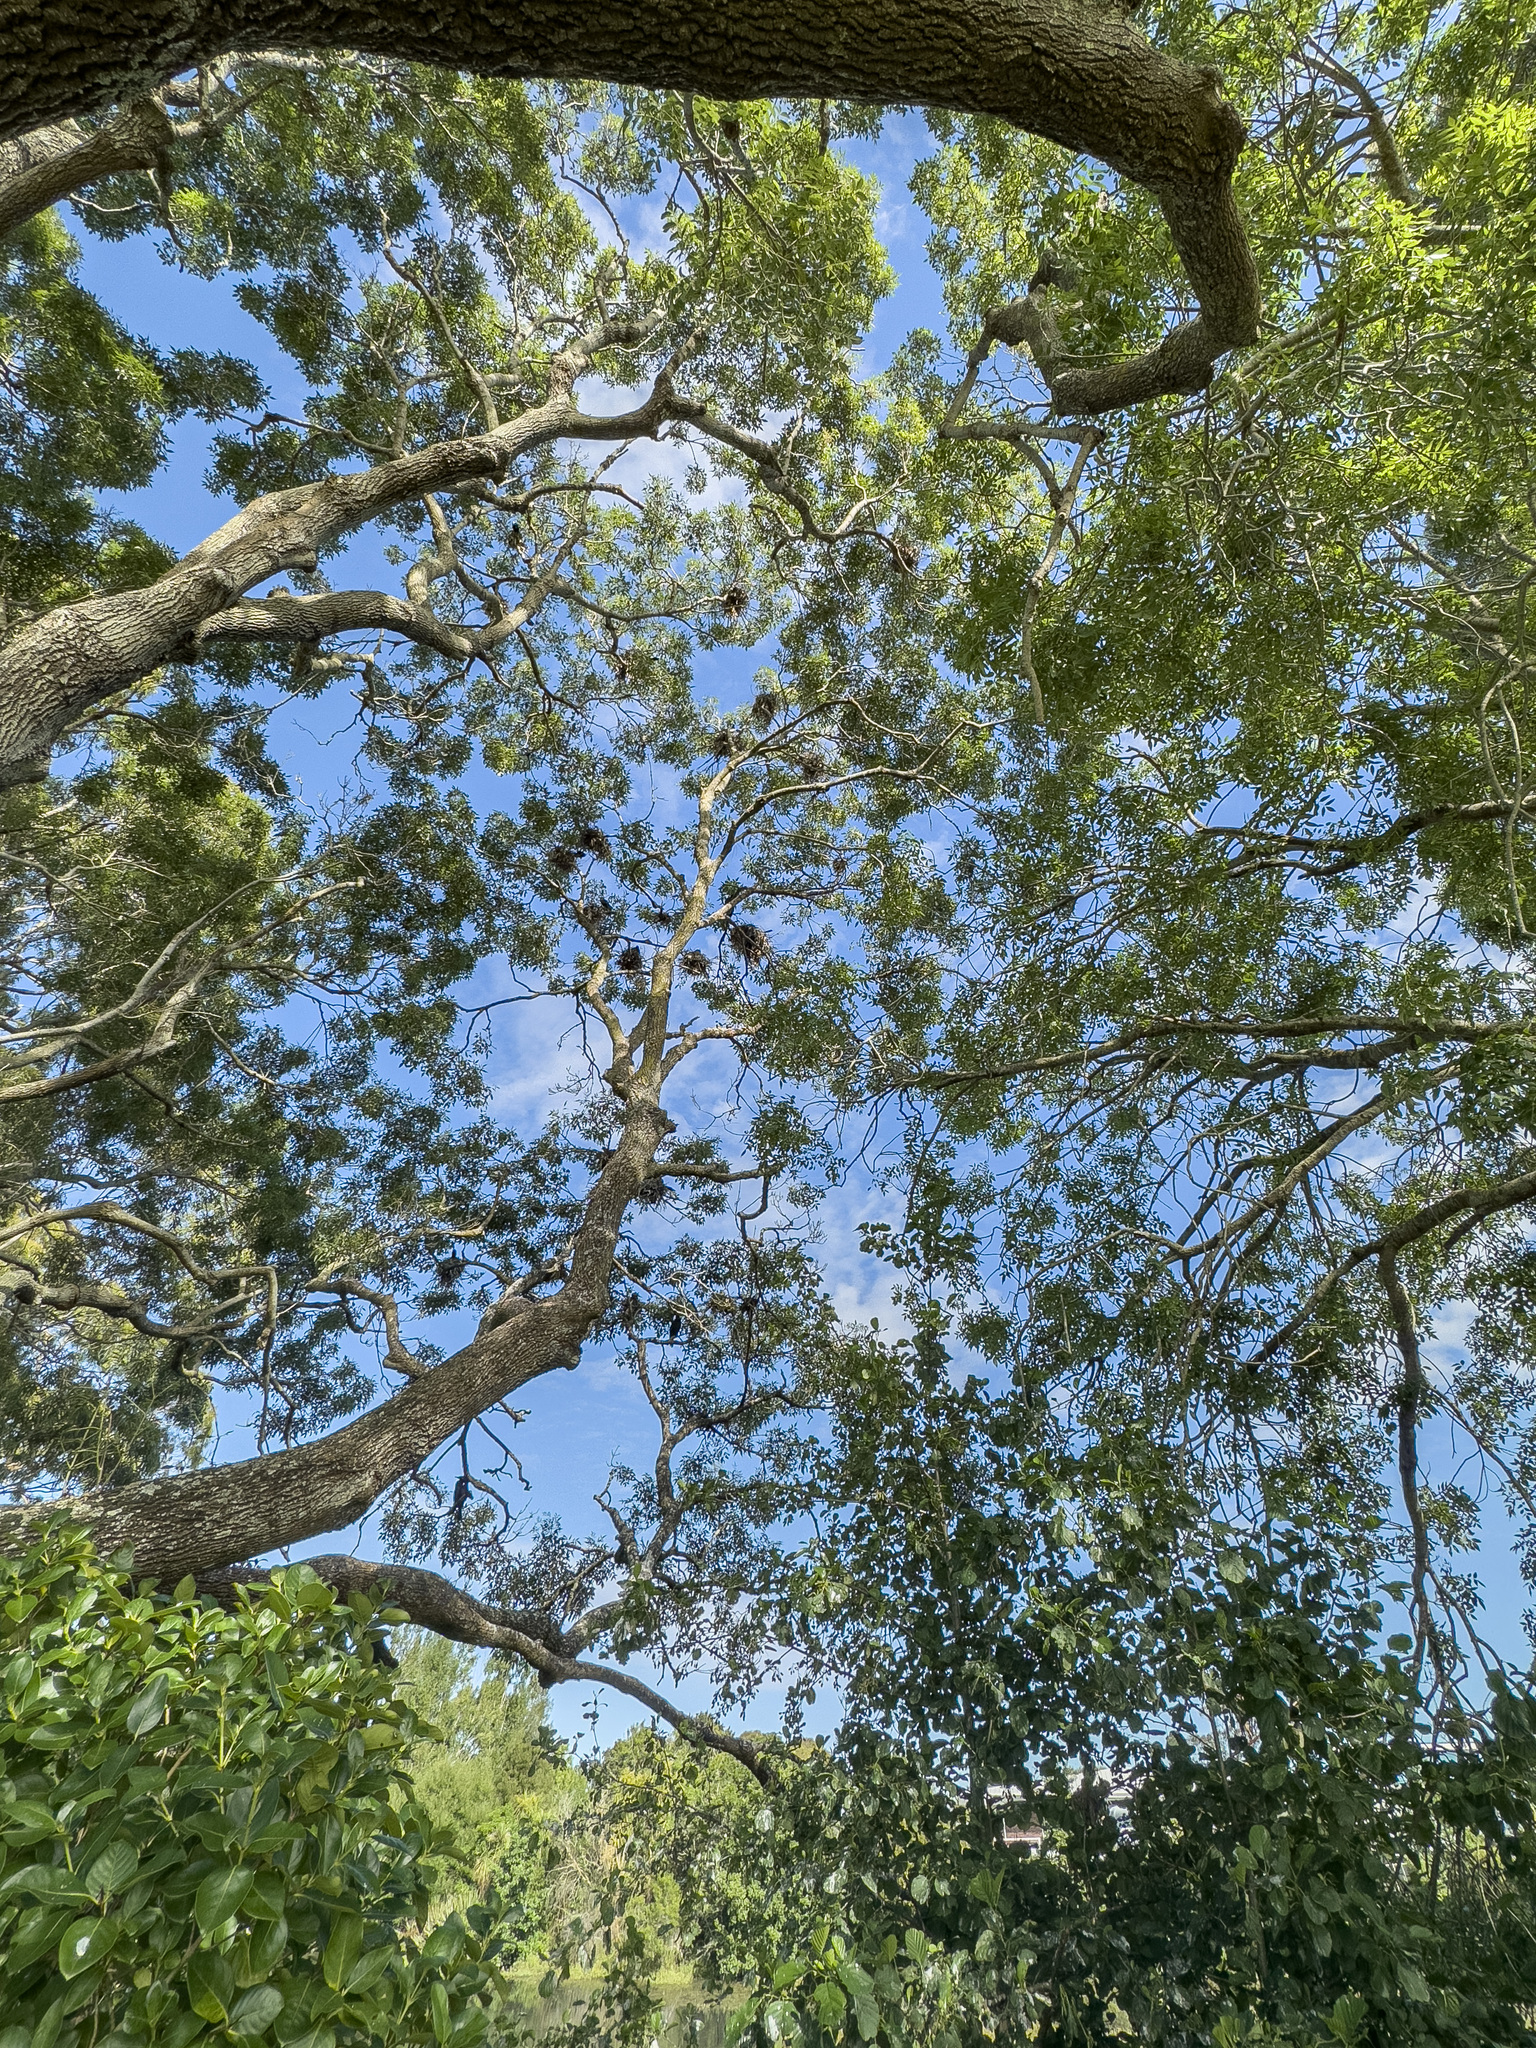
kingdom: Animalia
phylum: Chordata
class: Aves
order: Suliformes
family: Phalacrocoracidae
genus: Microcarbo
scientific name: Microcarbo melanoleucos
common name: Little pied cormorant
